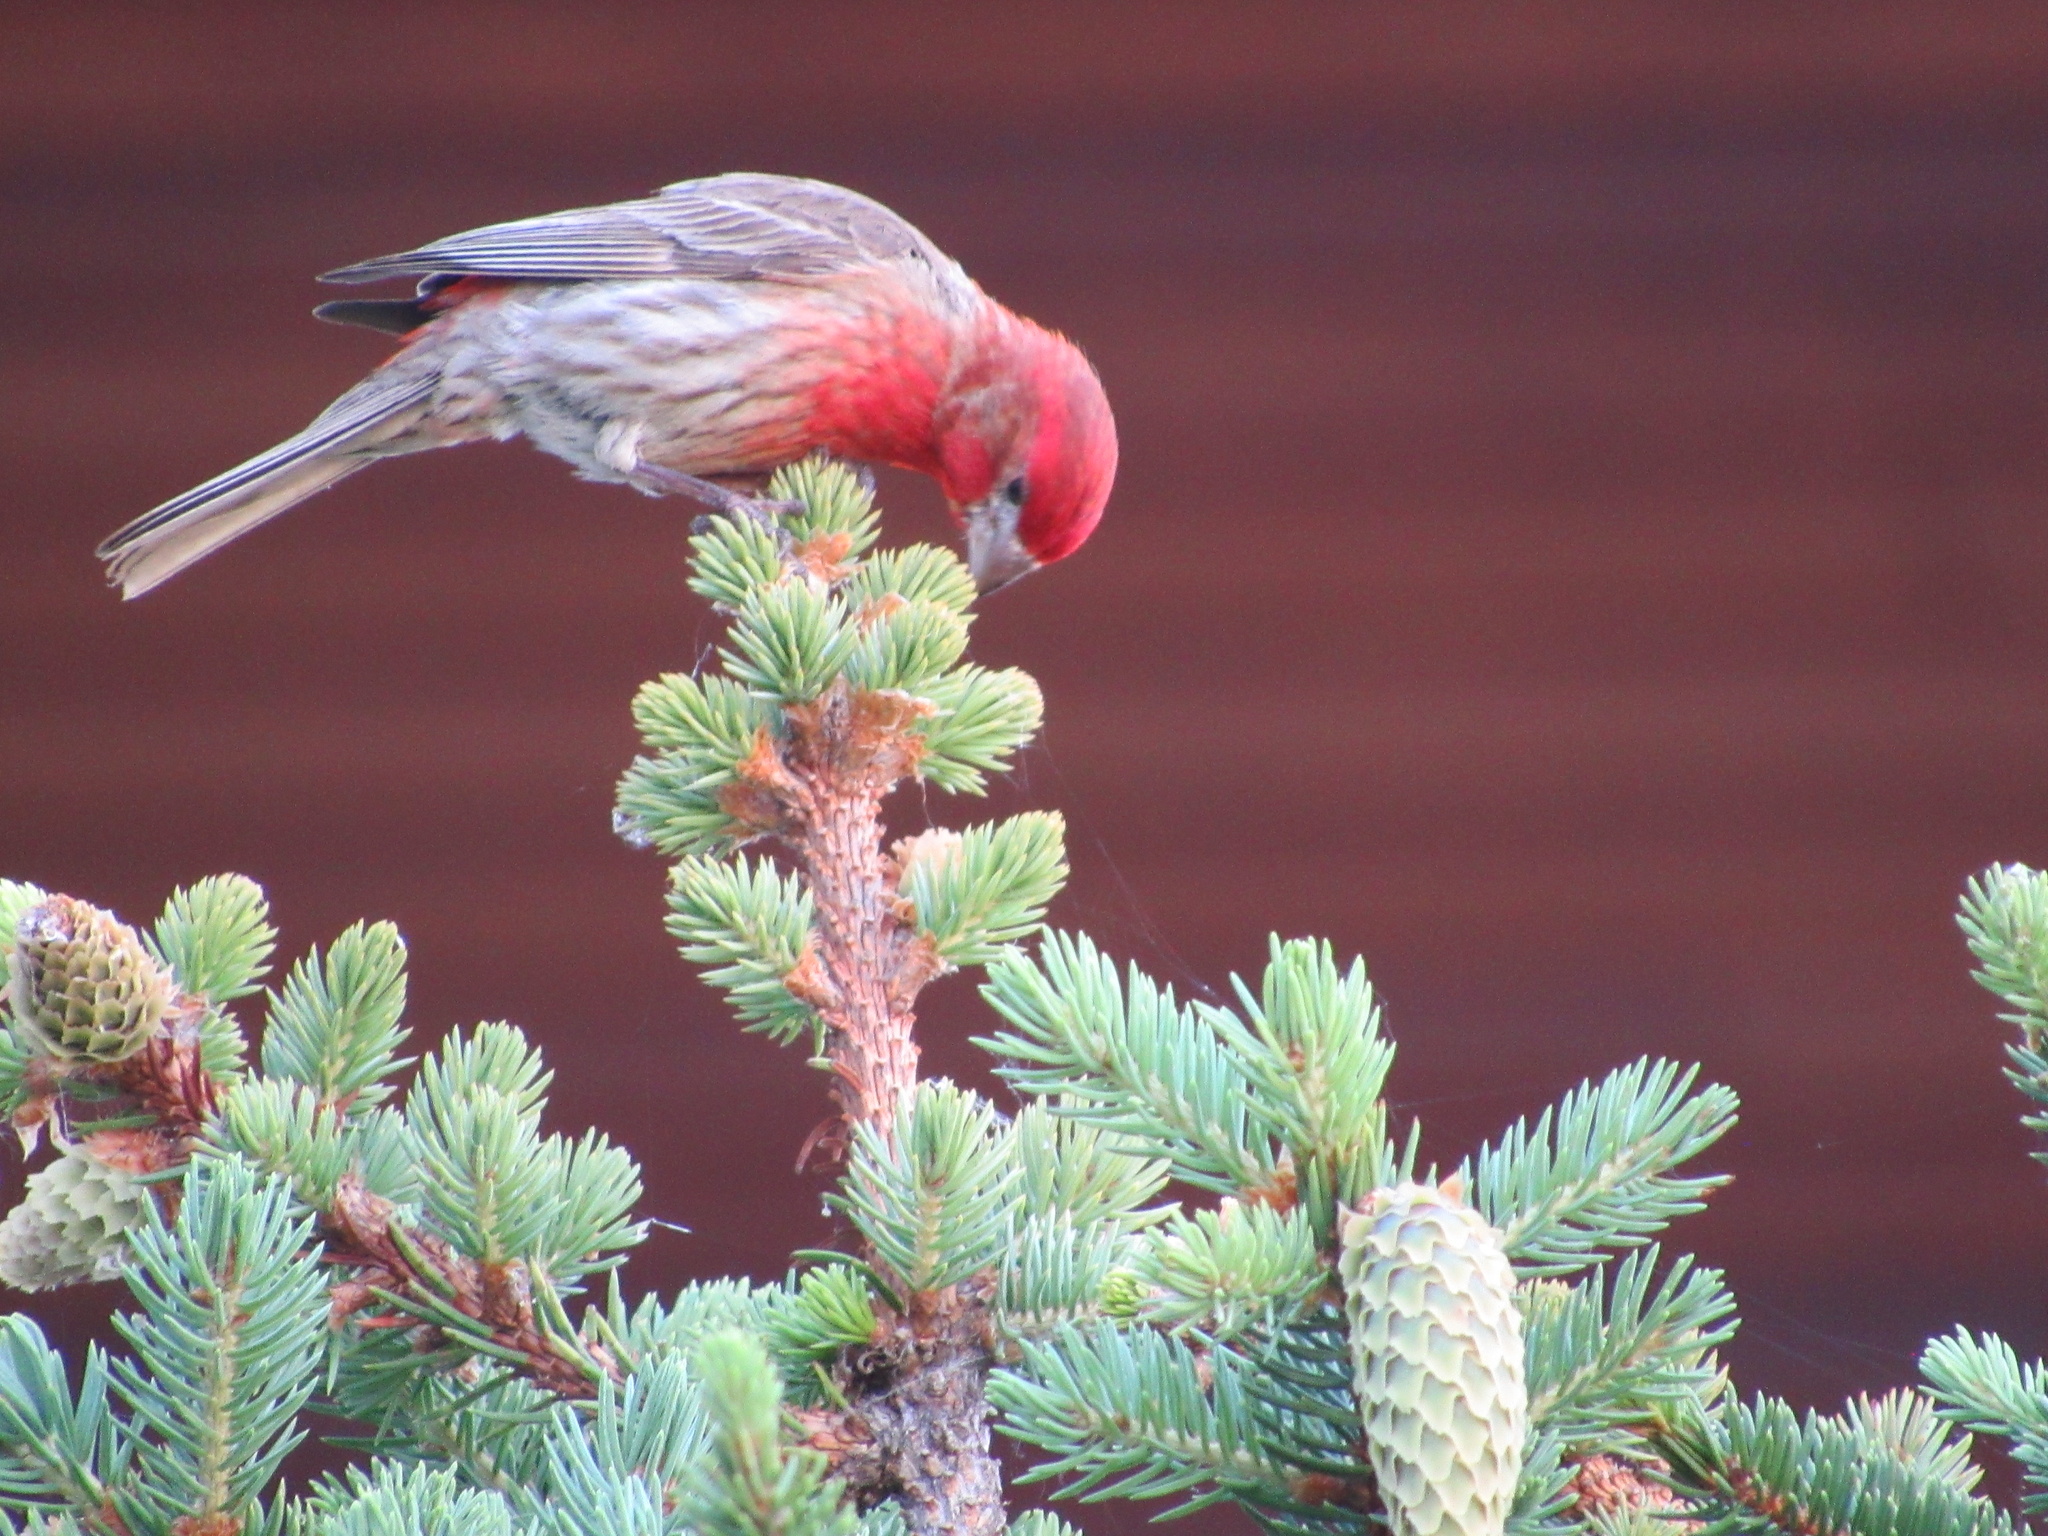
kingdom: Animalia
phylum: Chordata
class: Aves
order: Passeriformes
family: Fringillidae
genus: Haemorhous
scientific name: Haemorhous mexicanus
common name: House finch
